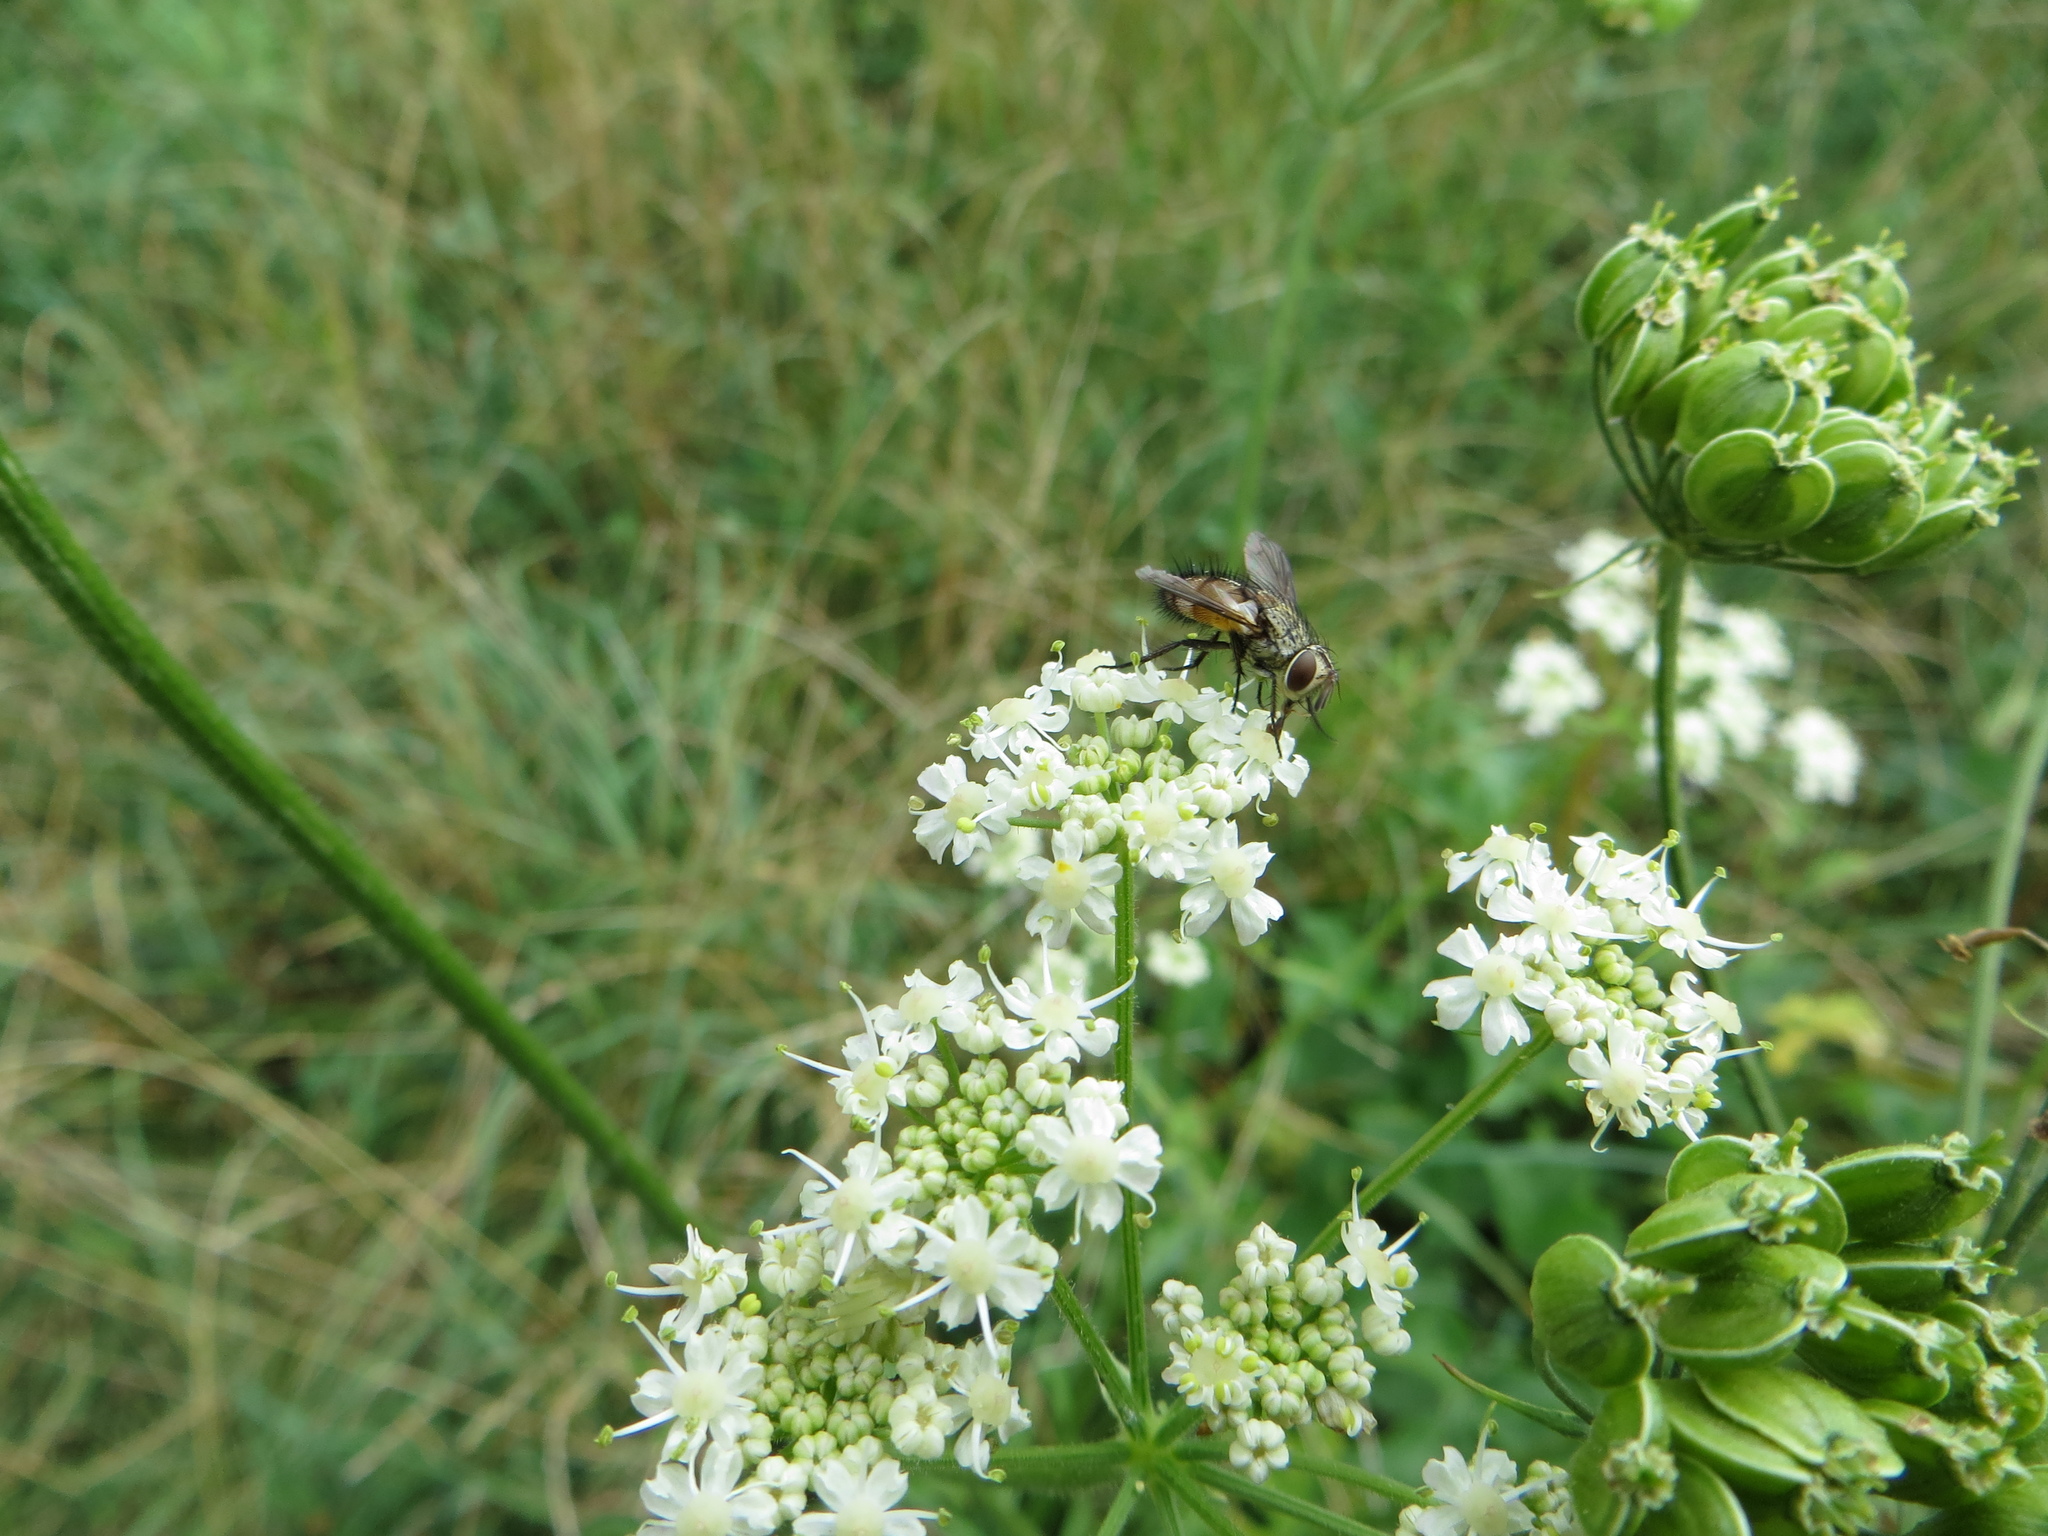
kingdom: Animalia
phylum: Arthropoda
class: Insecta
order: Diptera
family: Tachinidae
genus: Frontina
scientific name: Frontina laeta
